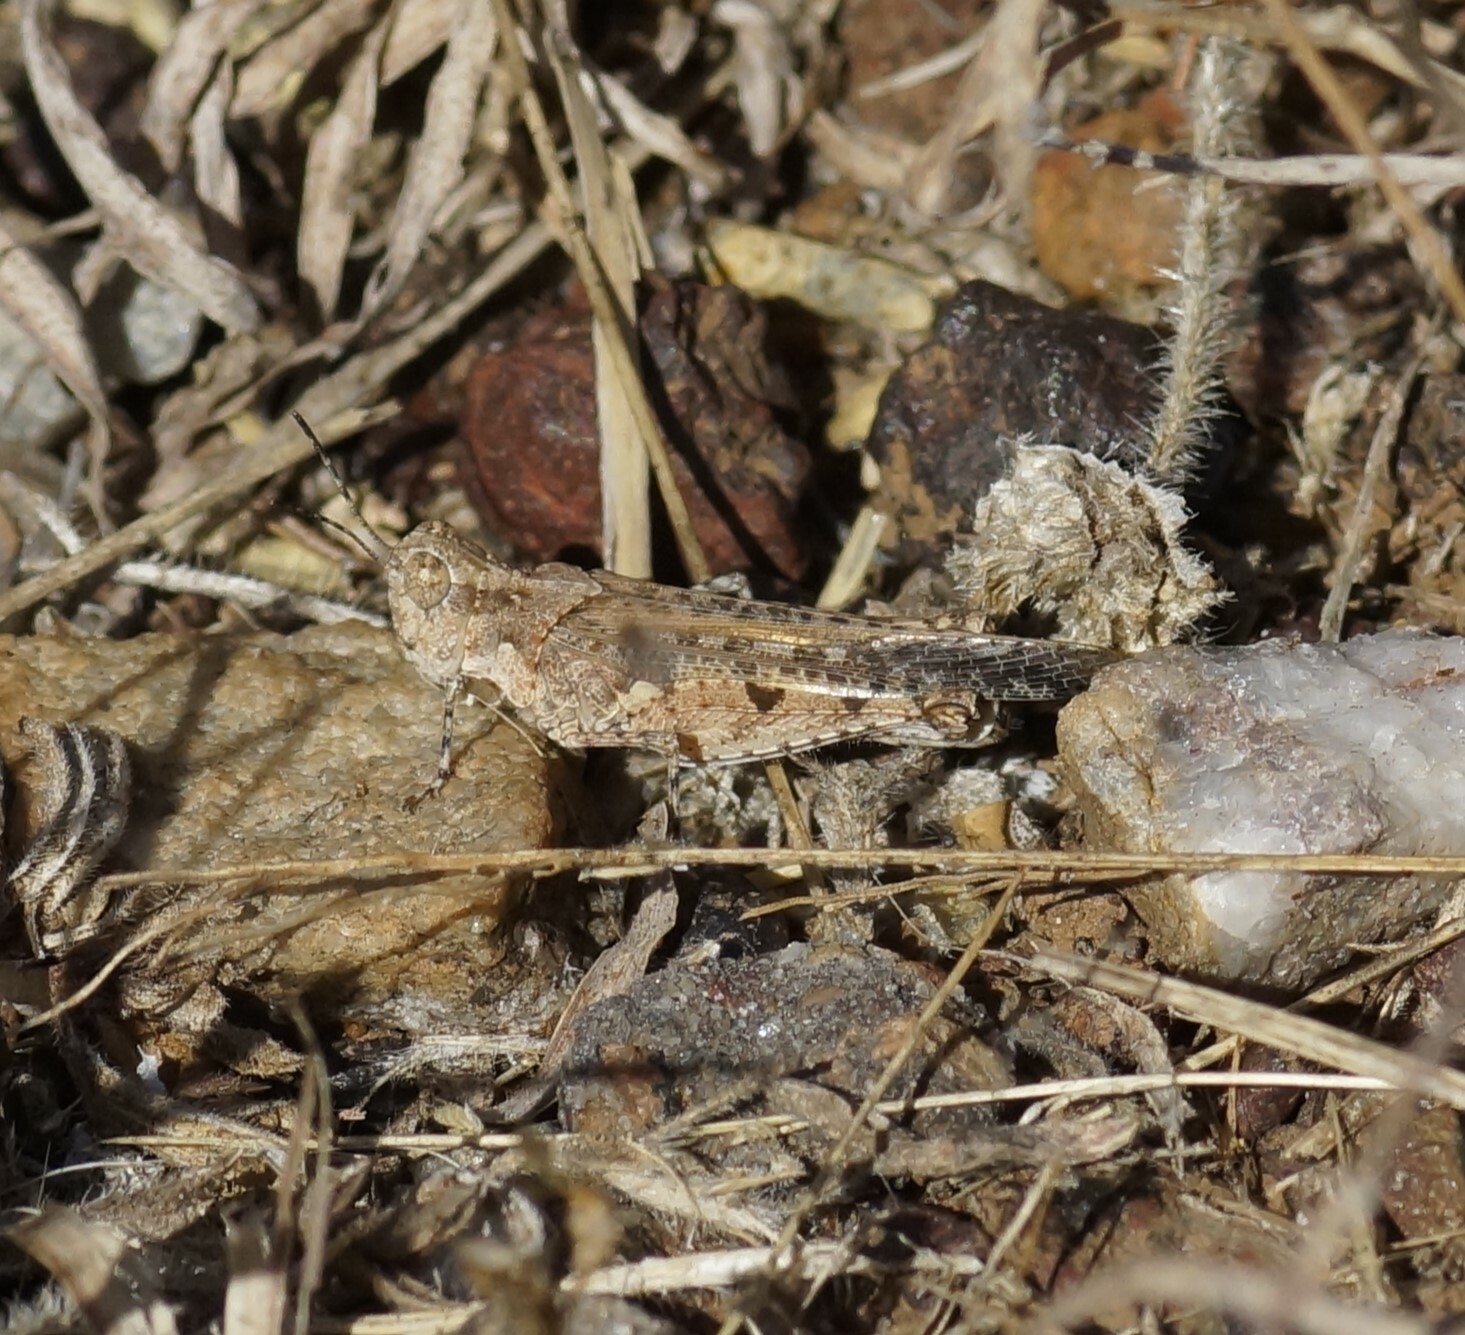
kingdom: Animalia
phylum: Arthropoda
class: Insecta
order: Orthoptera
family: Acrididae
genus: Pycnostictus
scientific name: Pycnostictus seriatus
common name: Common bandwing
